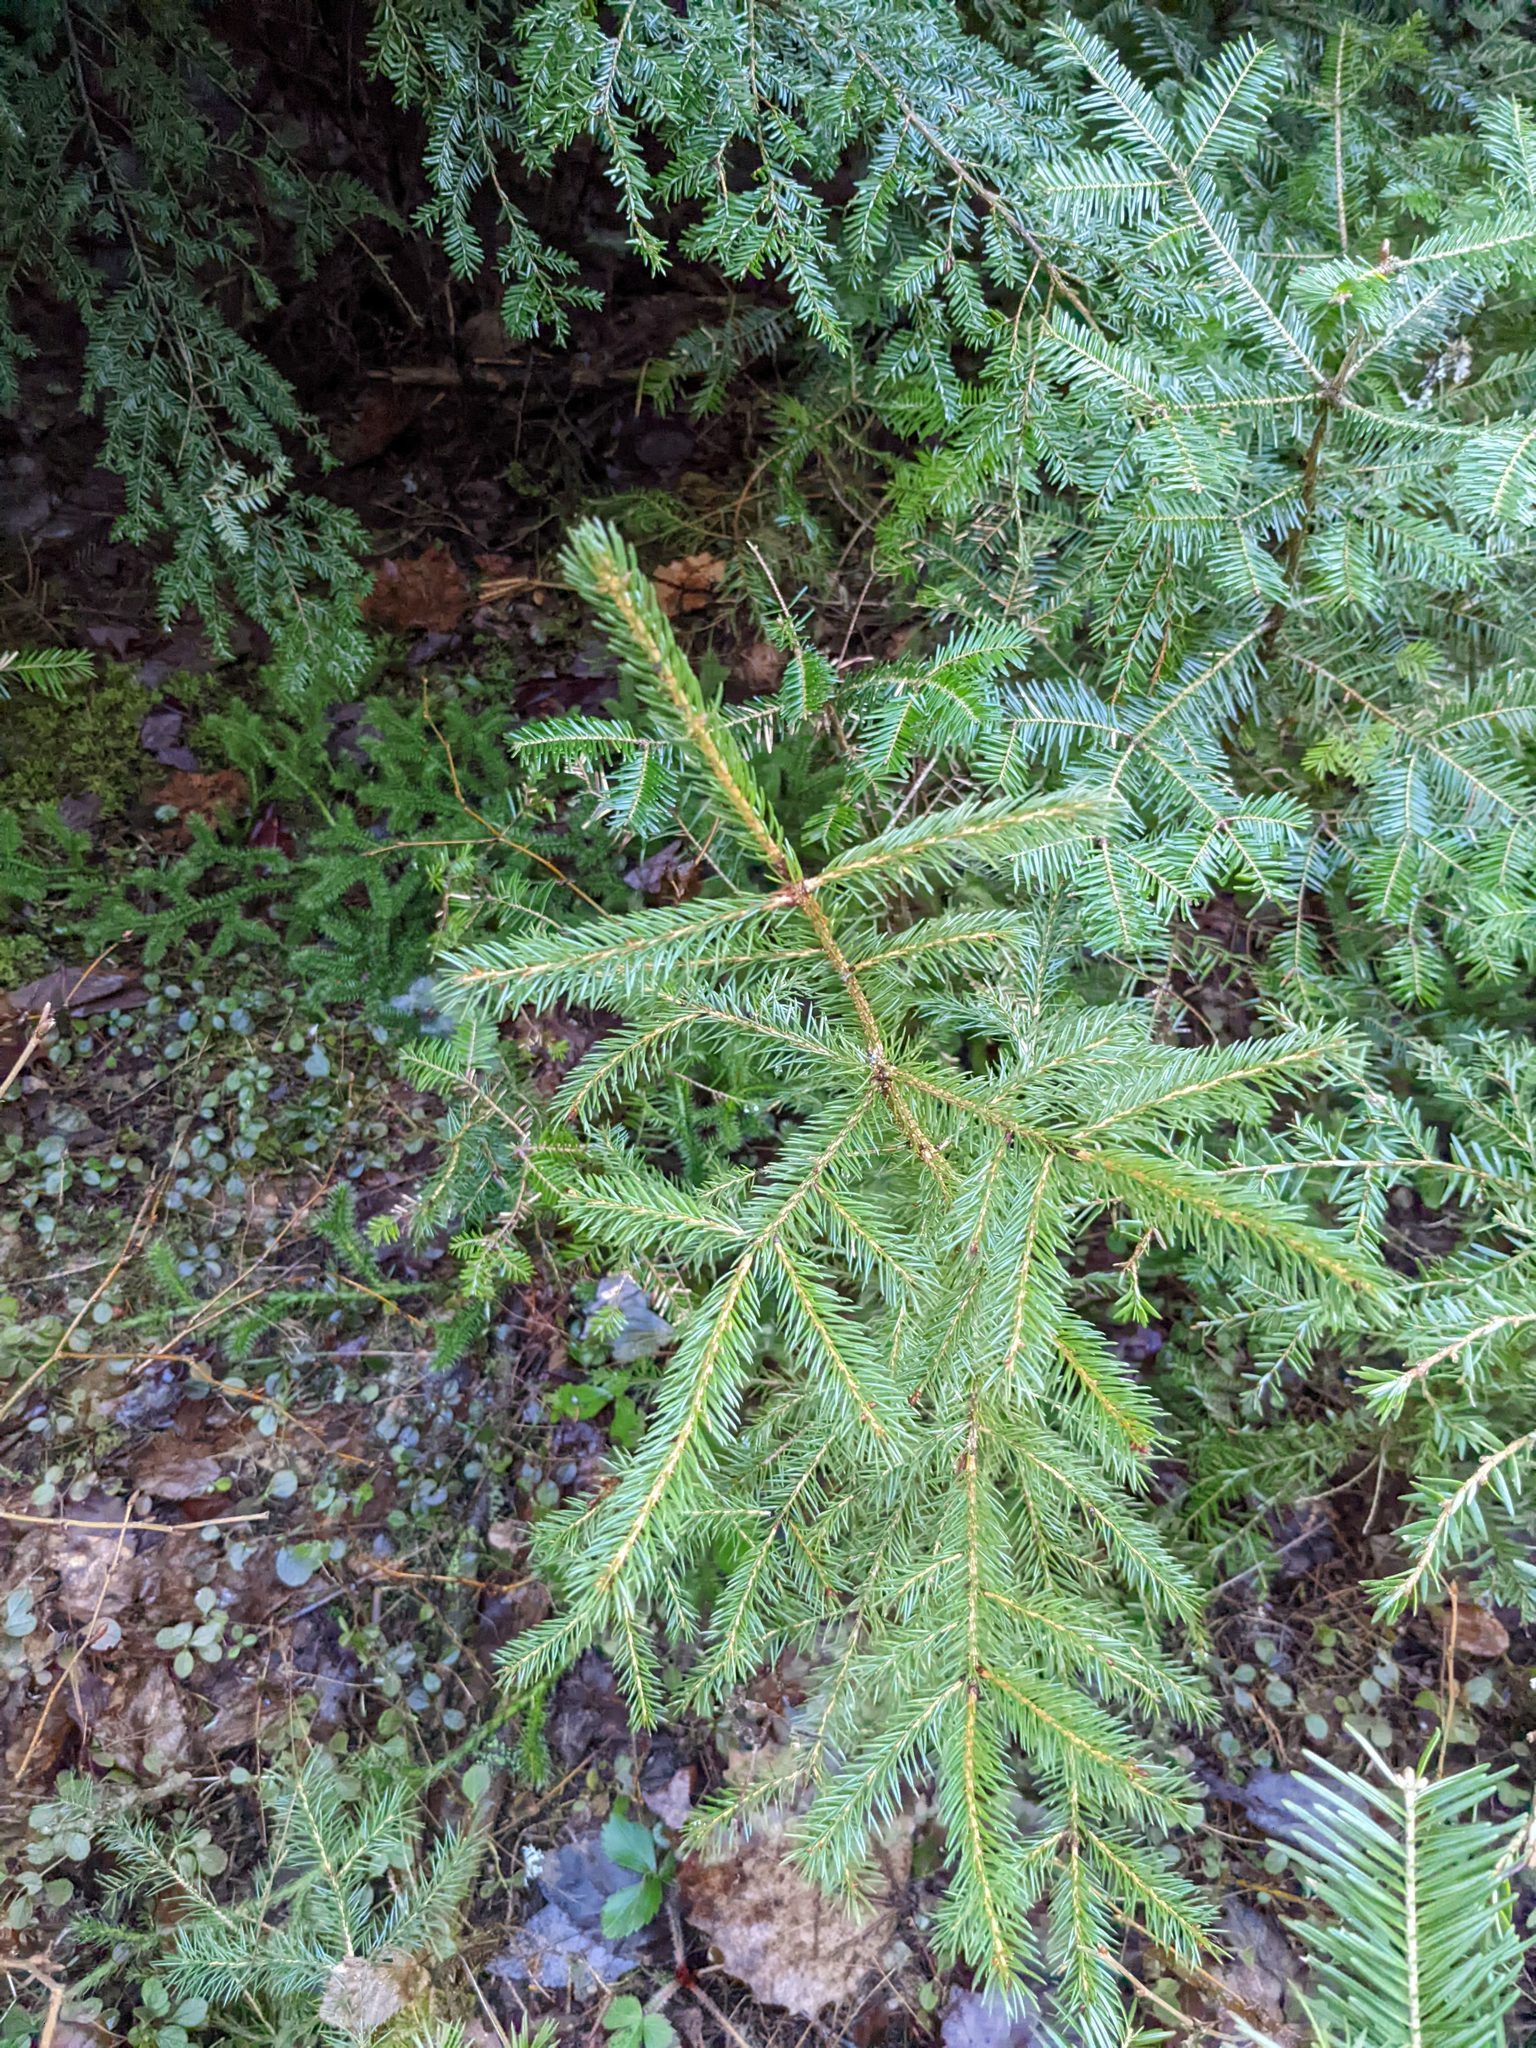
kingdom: Plantae
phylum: Tracheophyta
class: Pinopsida
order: Pinales
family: Pinaceae
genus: Picea
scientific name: Picea rubens
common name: Red spruce
